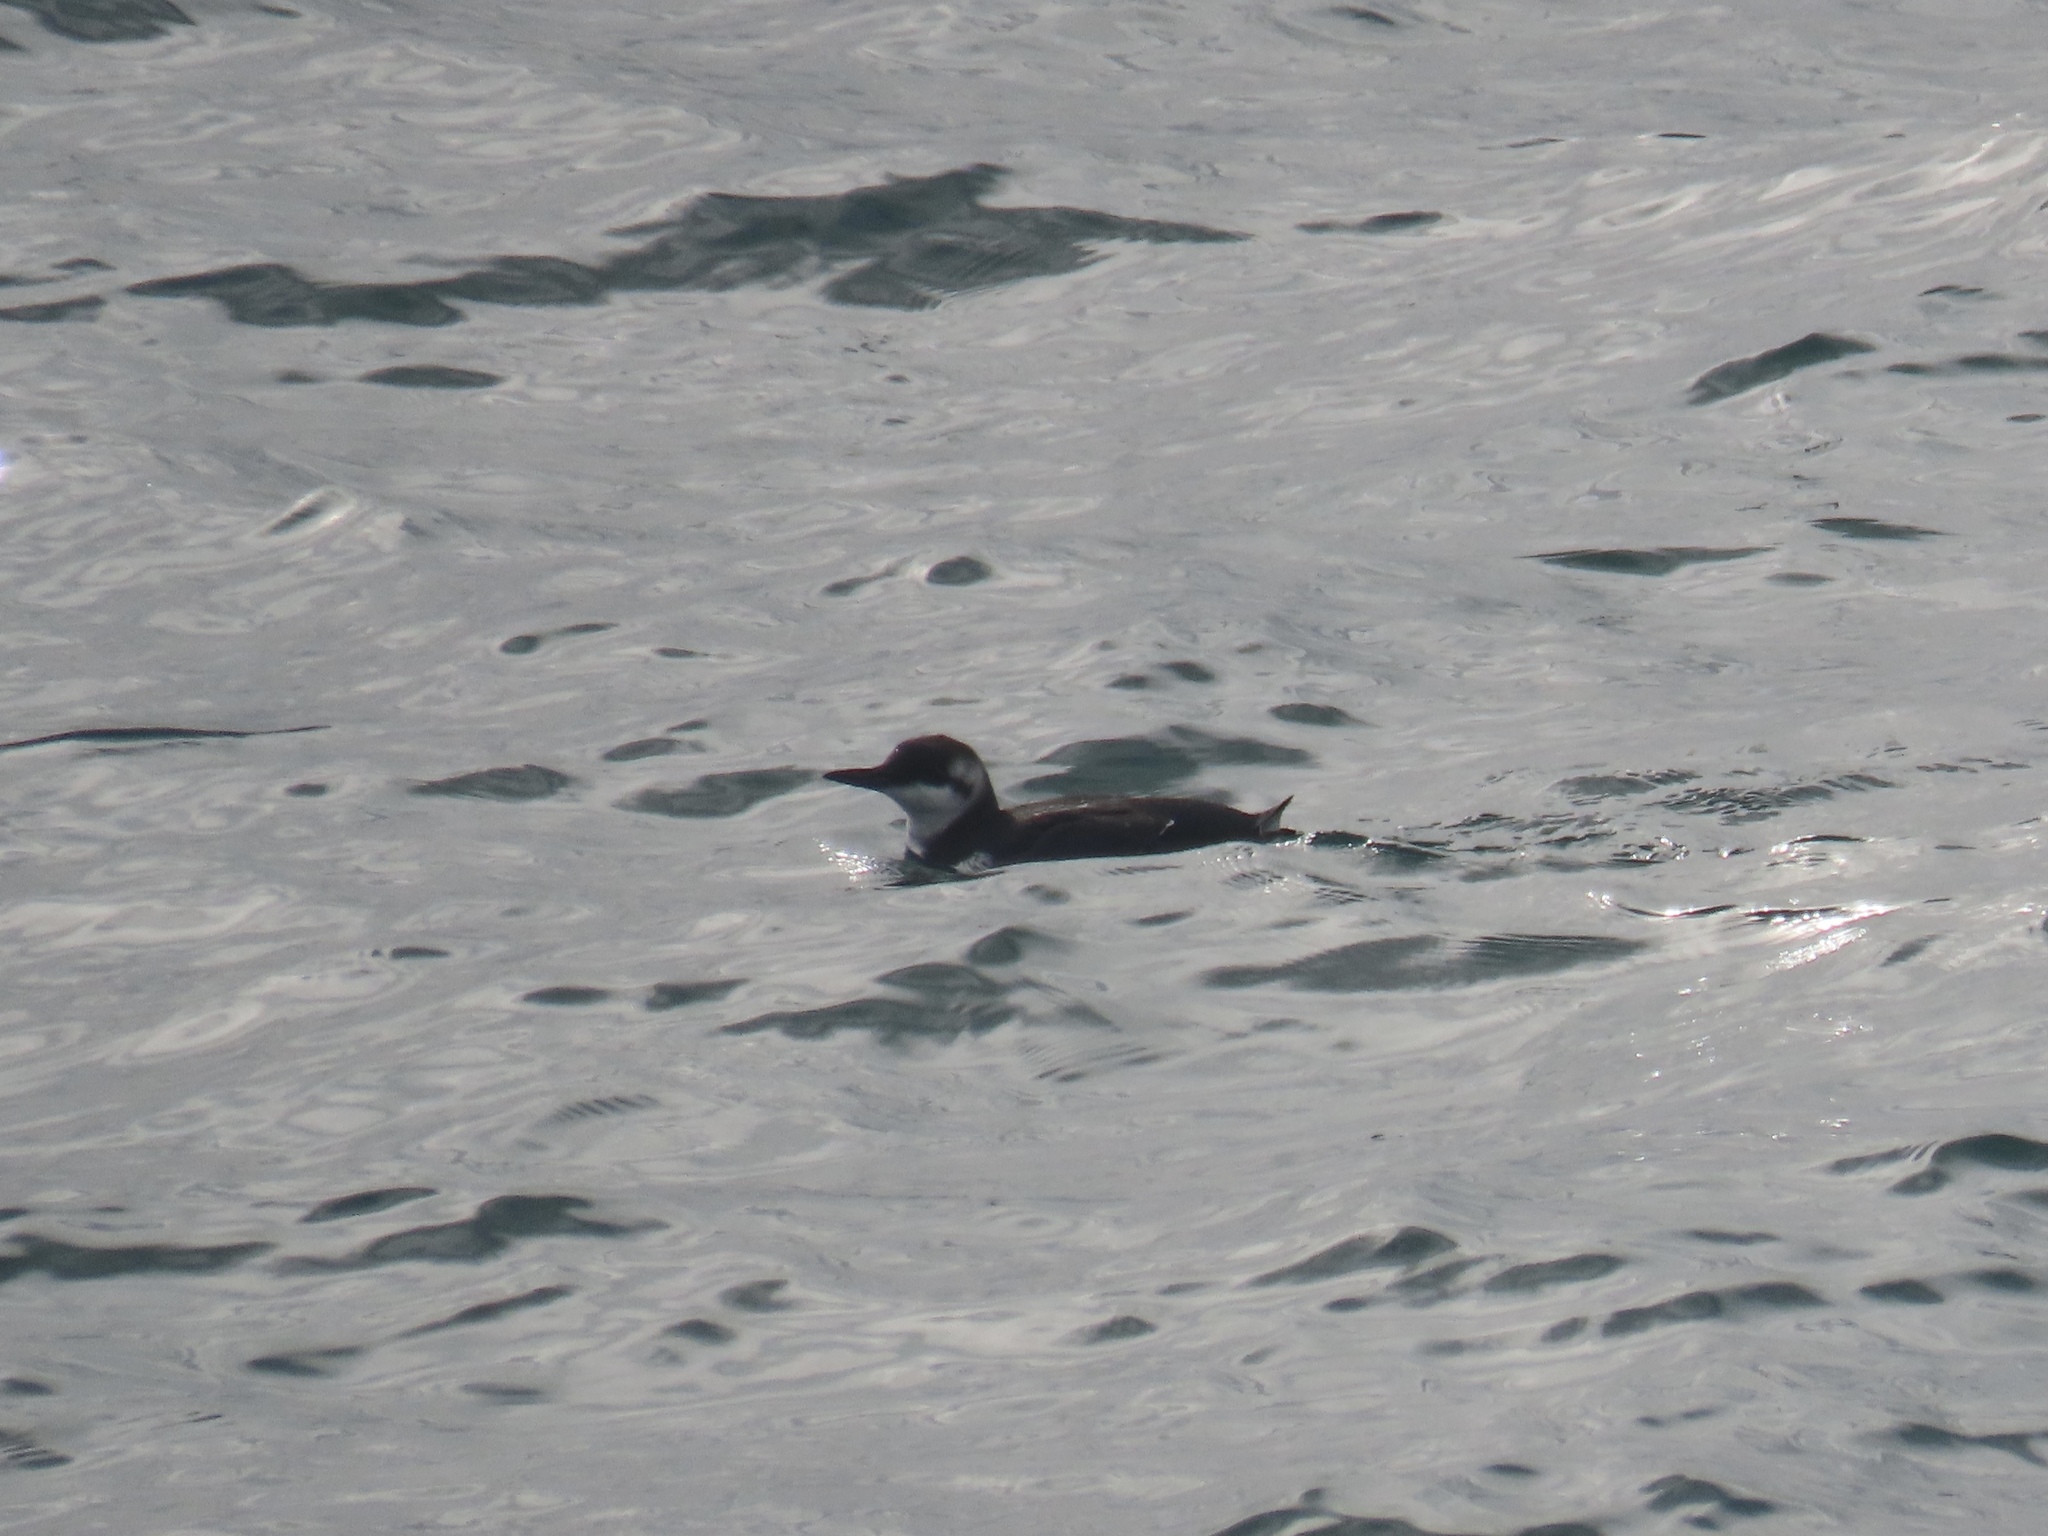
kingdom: Animalia
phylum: Chordata
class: Aves
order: Charadriiformes
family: Alcidae
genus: Uria
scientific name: Uria aalge
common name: Common murre
